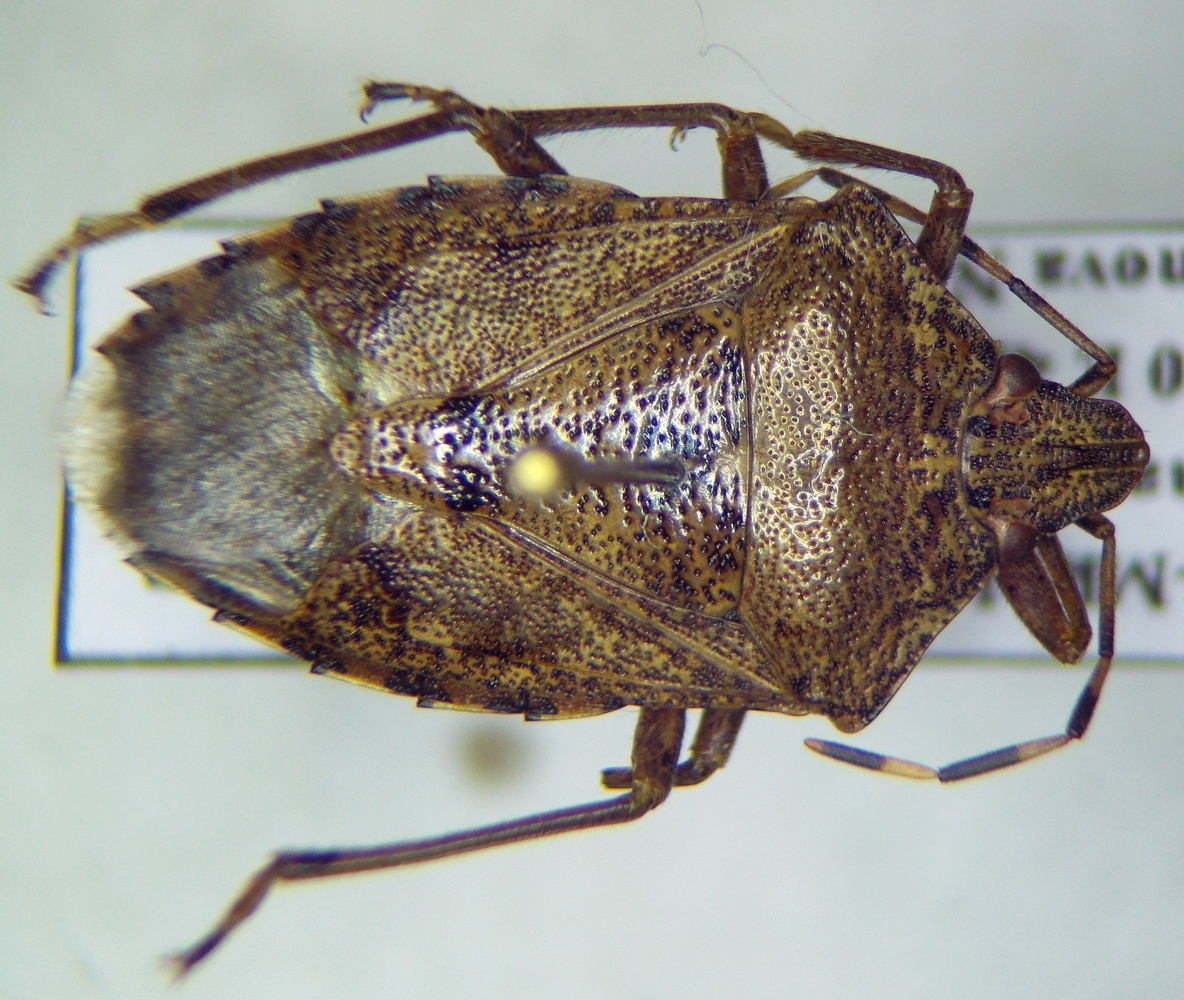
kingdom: Animalia
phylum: Arthropoda
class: Insecta
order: Hemiptera
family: Pentatomidae
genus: Rhaphigaster
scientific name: Rhaphigaster nebulosa
